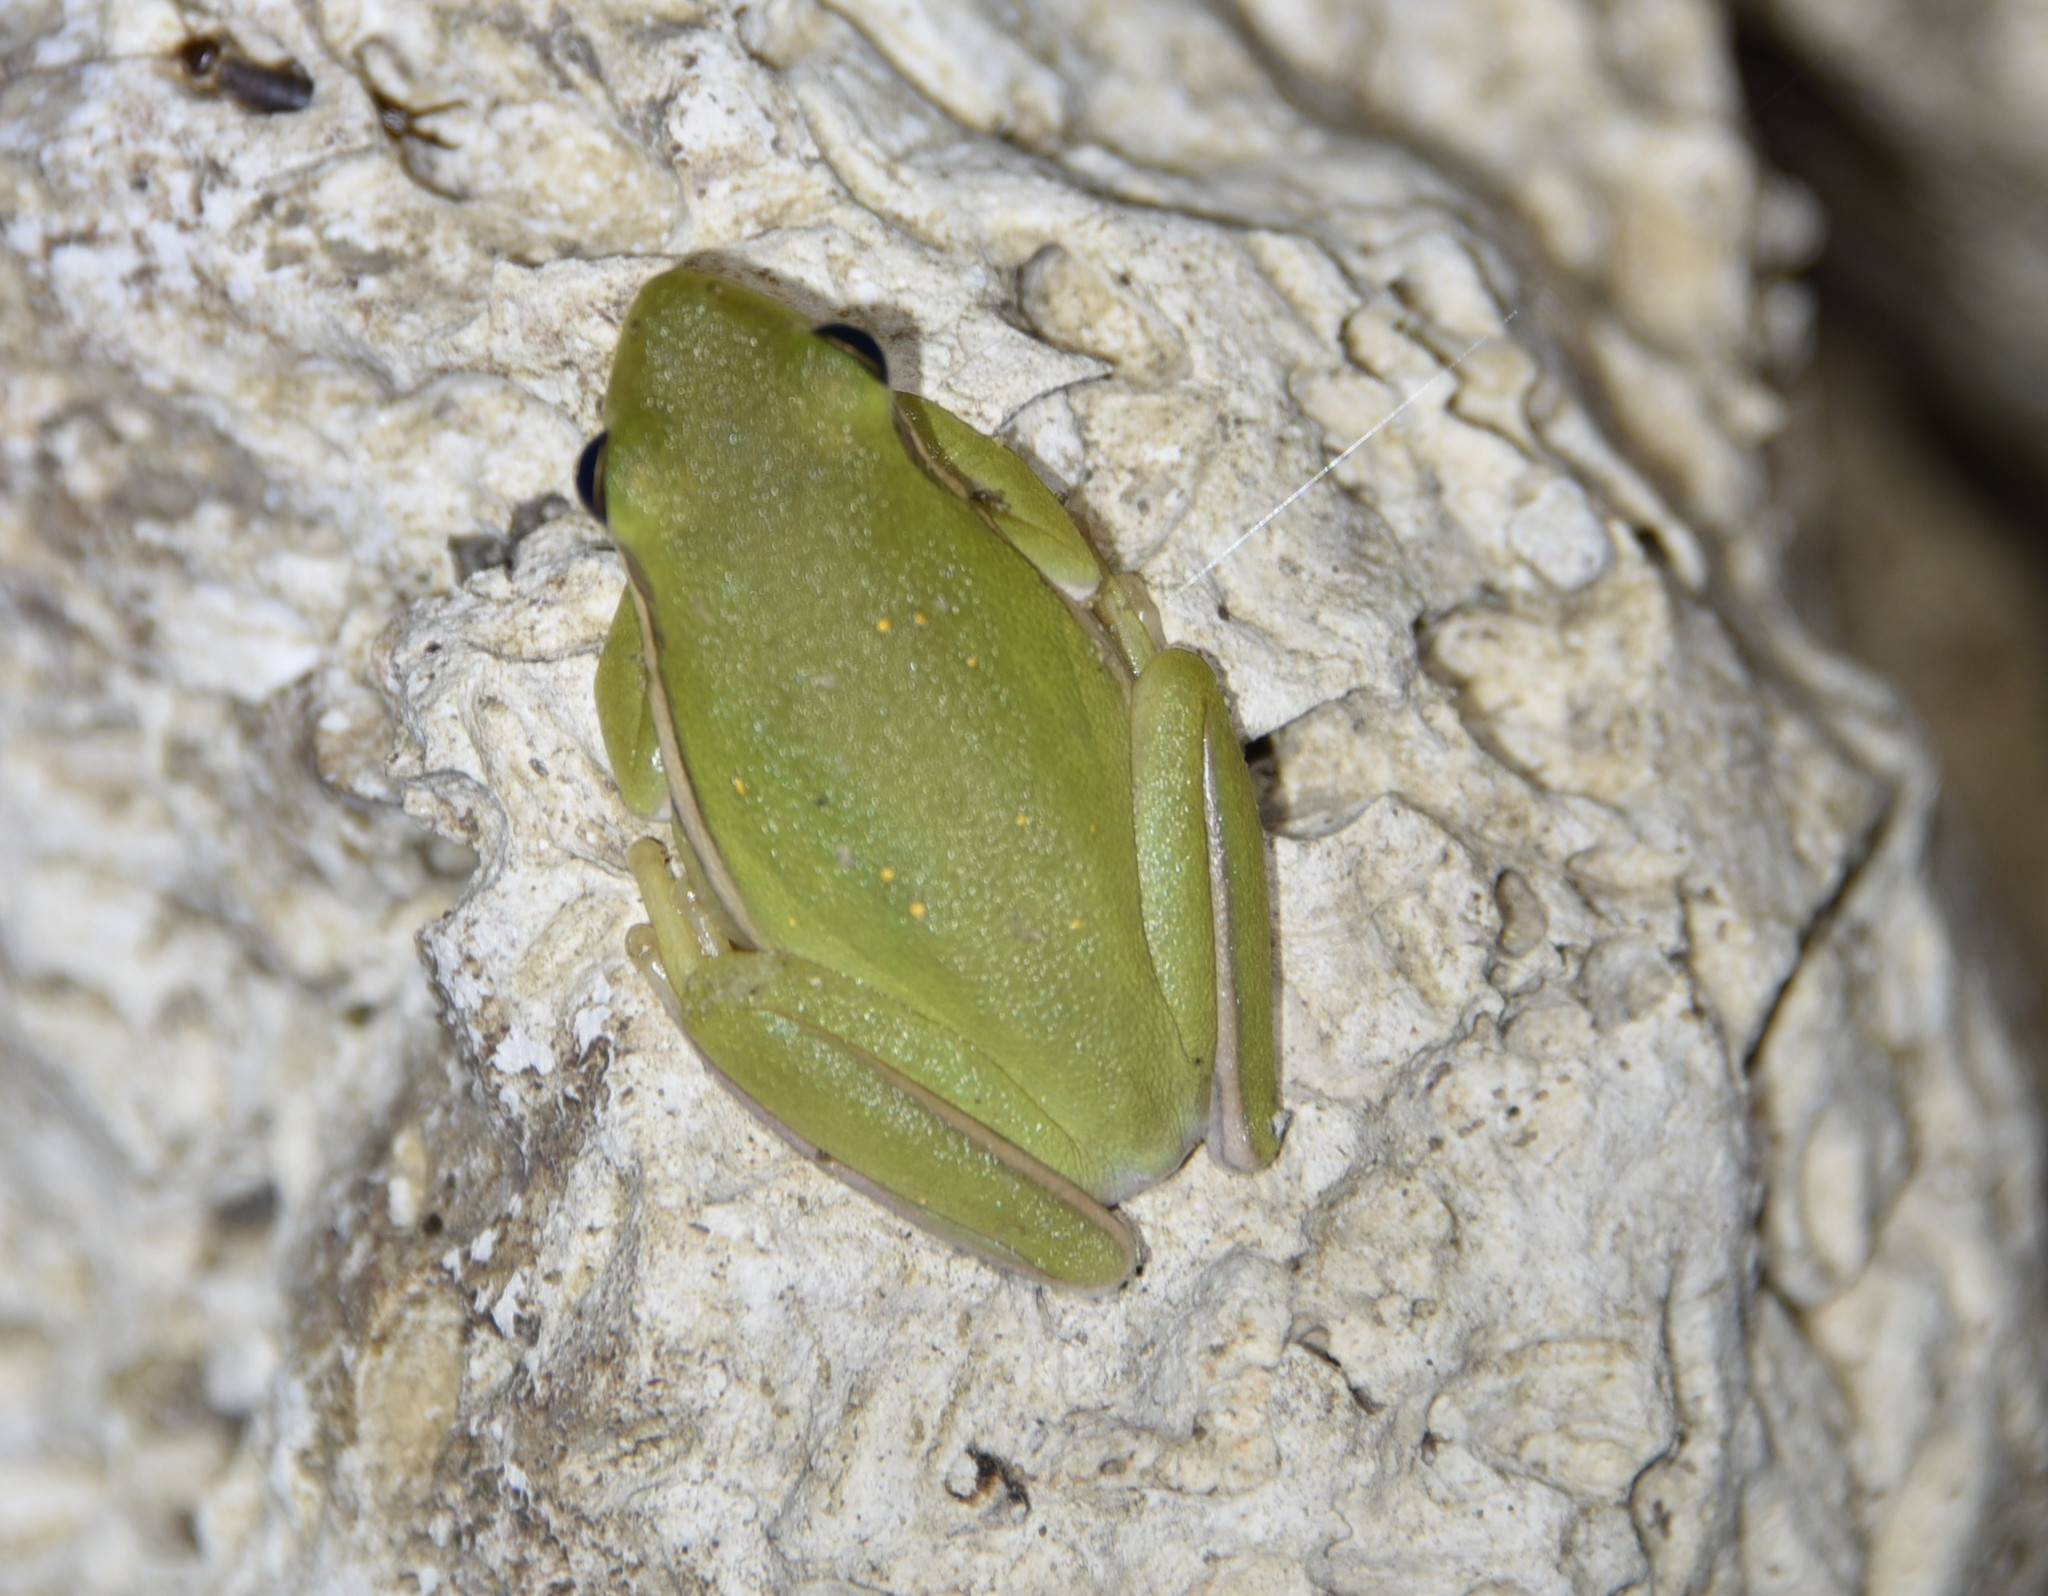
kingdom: Animalia
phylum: Chordata
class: Amphibia
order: Anura
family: Hylidae
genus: Dryophytes
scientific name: Dryophytes cinereus
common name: Green treefrog
